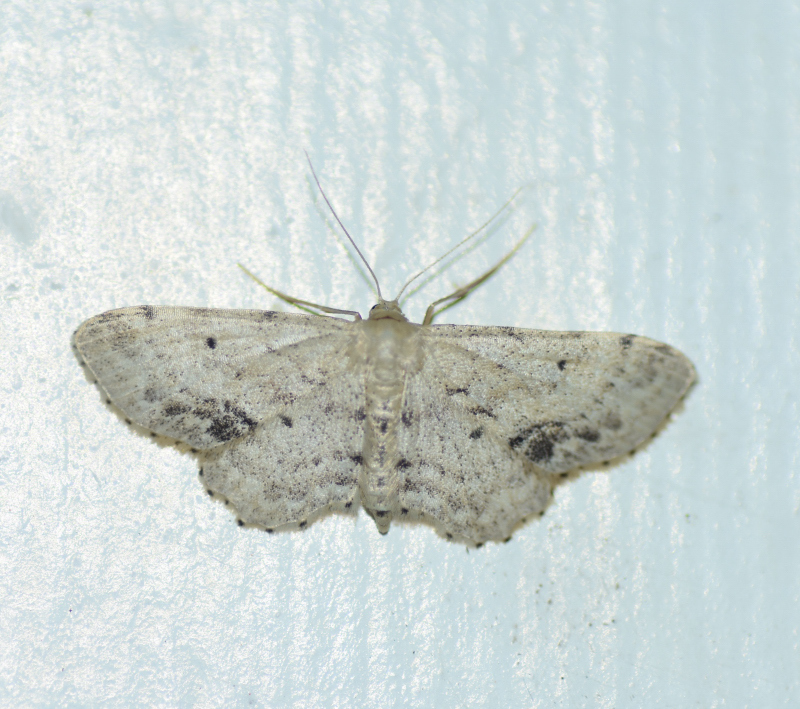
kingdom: Animalia
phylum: Arthropoda
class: Insecta
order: Lepidoptera
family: Geometridae
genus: Idaea
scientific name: Idaea dimidiata
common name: Single-dotted wave
